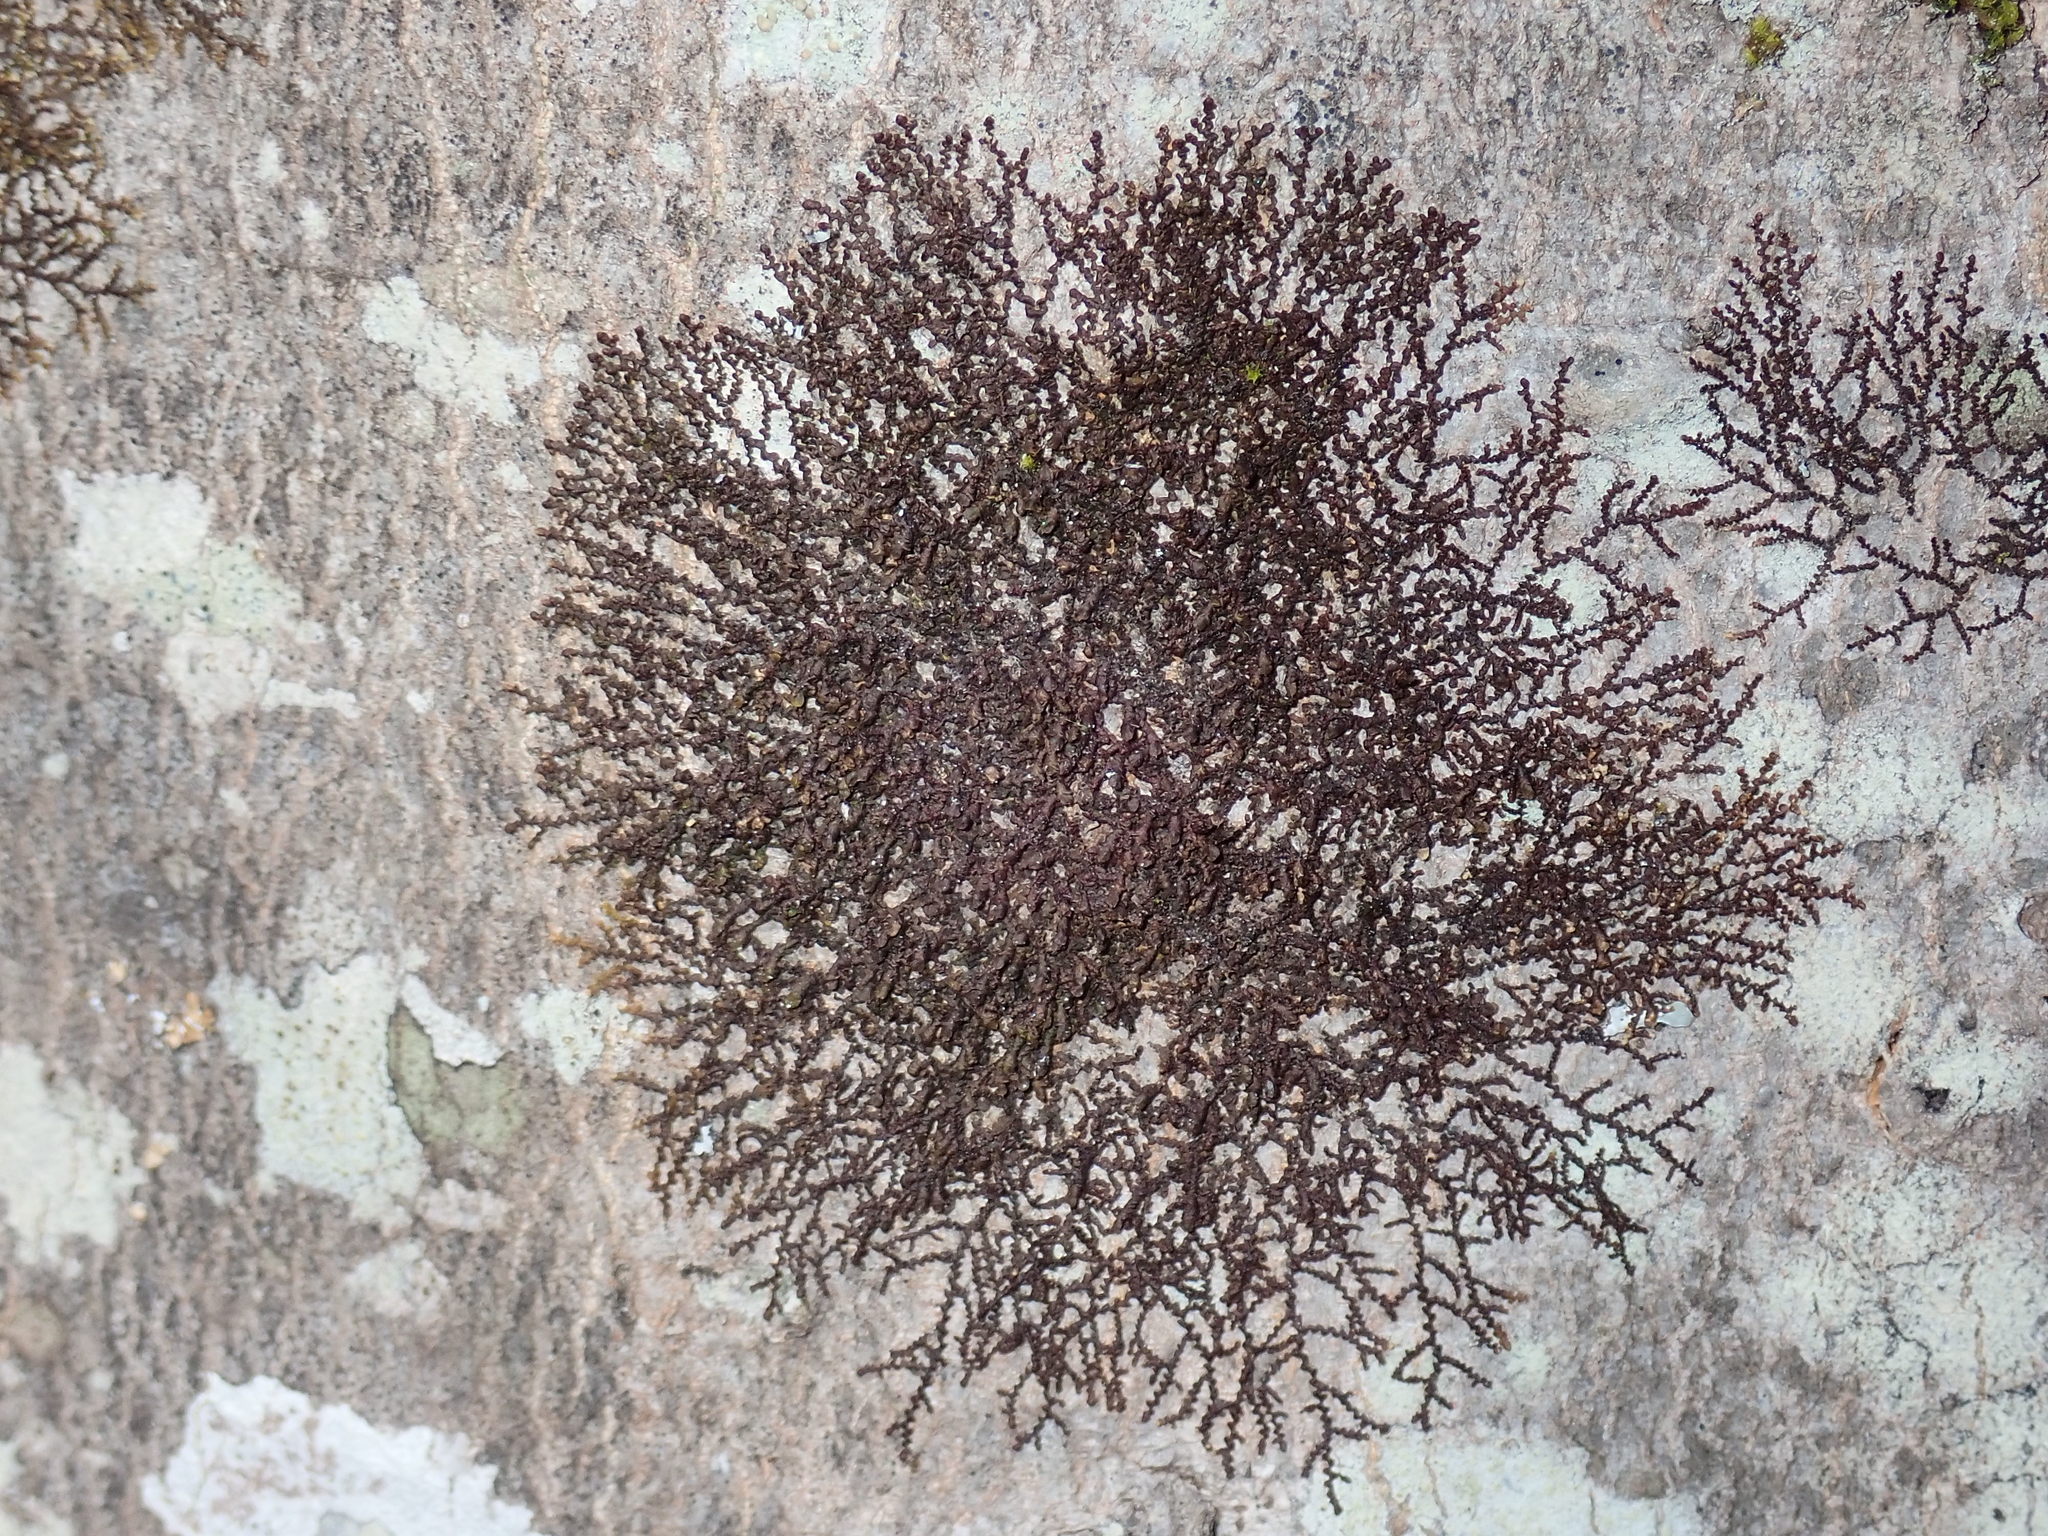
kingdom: Plantae
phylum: Marchantiophyta
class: Jungermanniopsida
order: Porellales
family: Frullaniaceae
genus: Frullania
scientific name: Frullania
